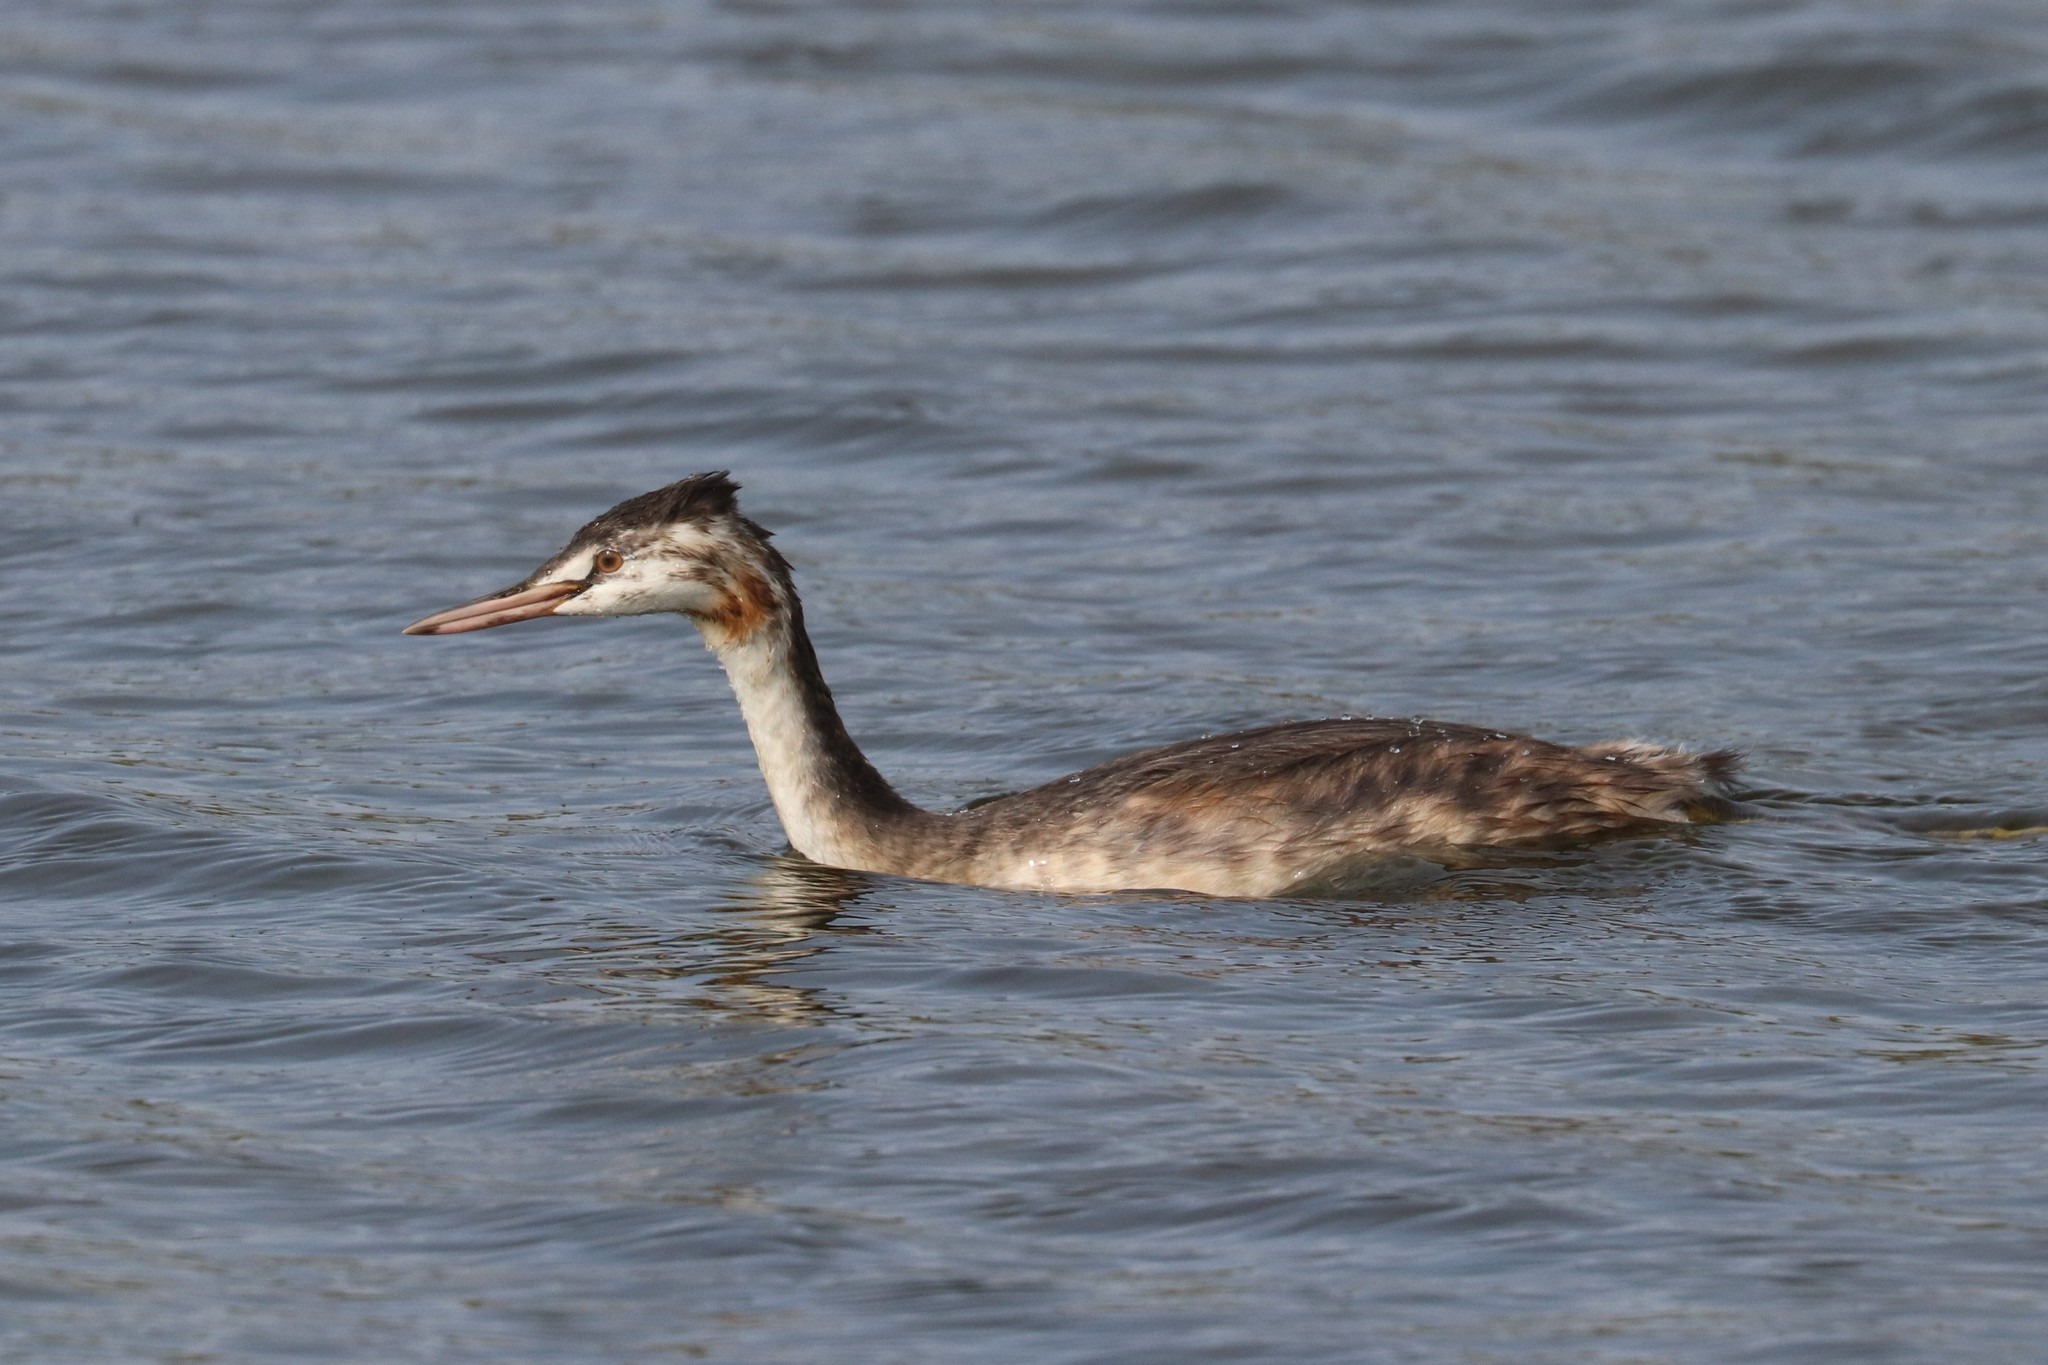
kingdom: Animalia
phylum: Chordata
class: Aves
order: Podicipediformes
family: Podicipedidae
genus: Podiceps
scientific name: Podiceps cristatus
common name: Great crested grebe
